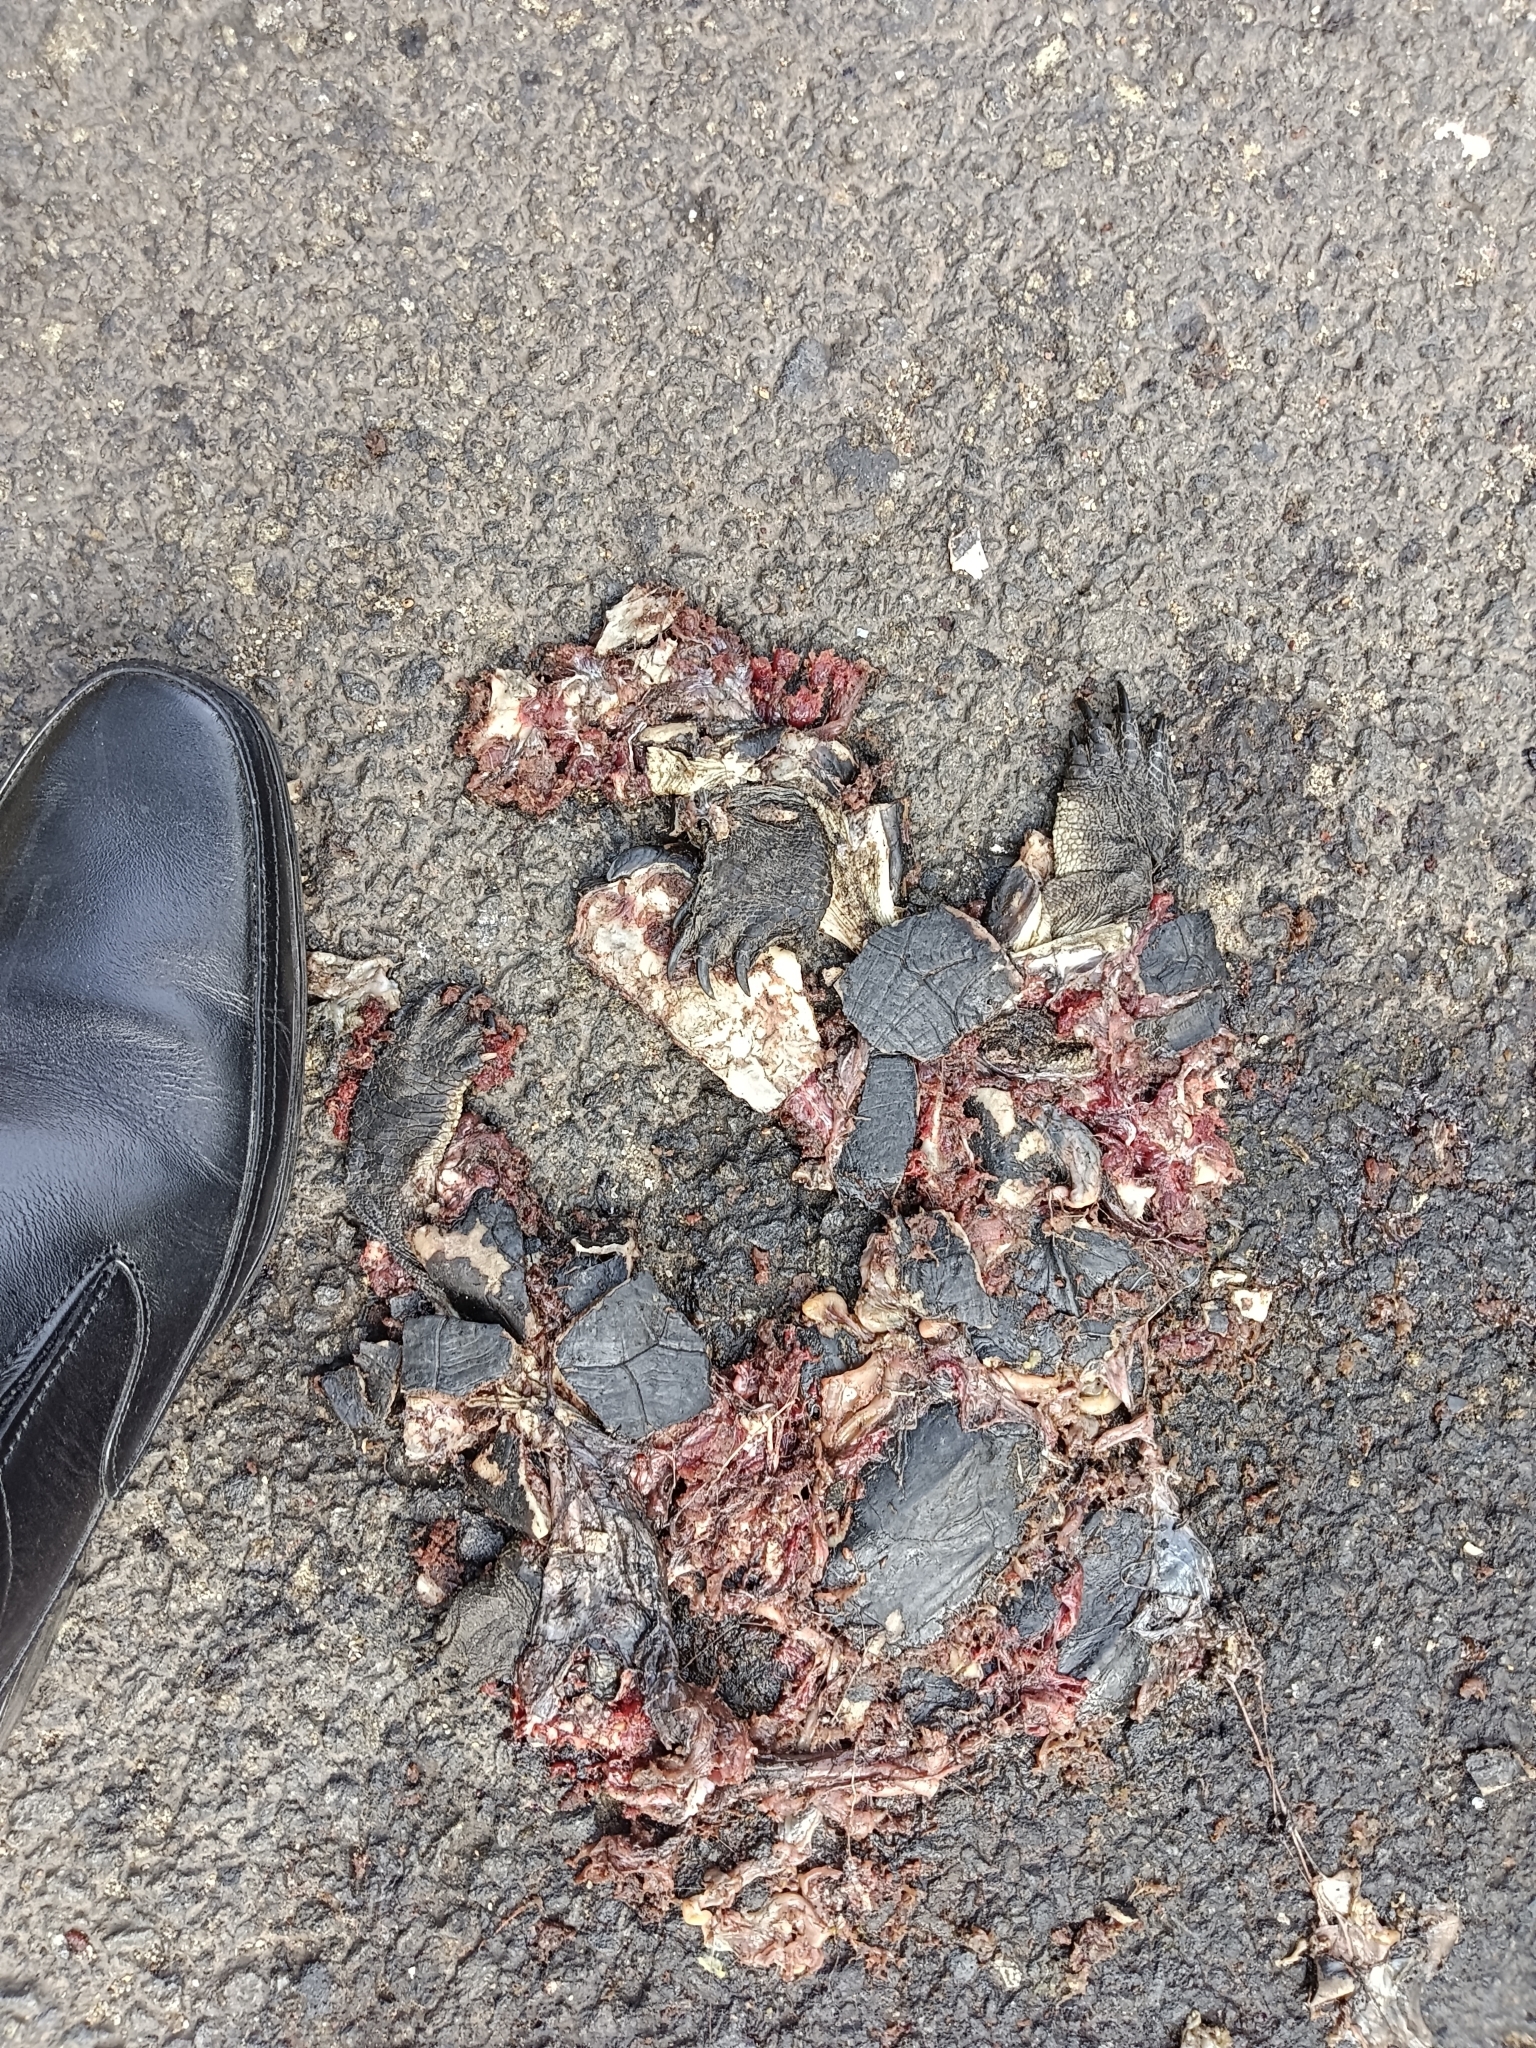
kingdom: Animalia
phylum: Chordata
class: Testudines
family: Geoemydidae
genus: Melanochelys
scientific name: Melanochelys trijuga
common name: Indian black turtle
